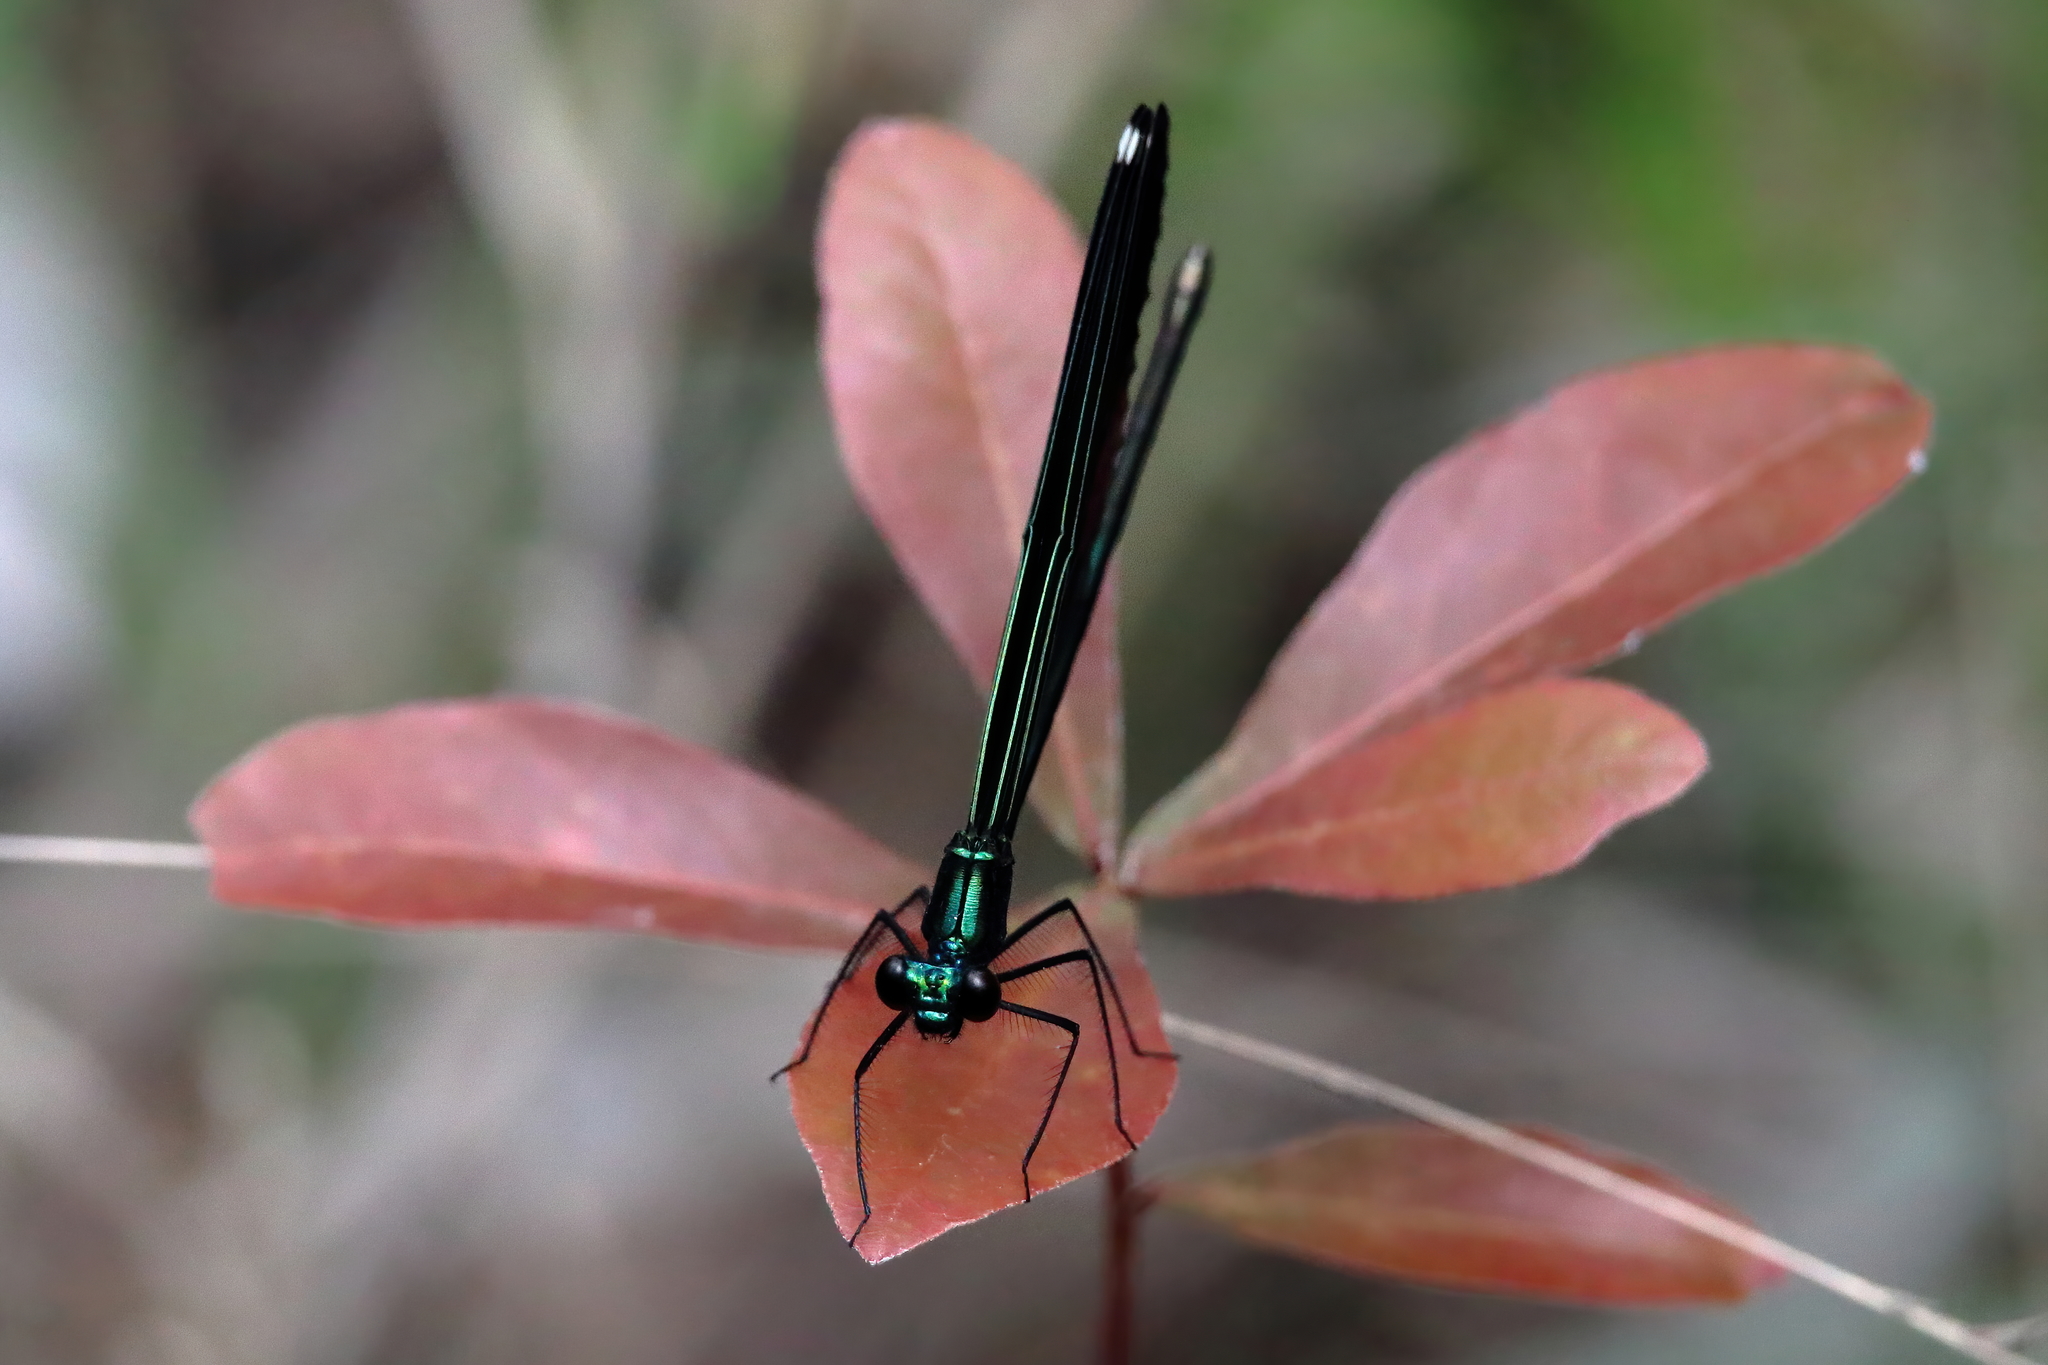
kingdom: Animalia
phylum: Arthropoda
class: Insecta
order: Odonata
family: Calopterygidae
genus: Calopteryx
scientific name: Calopteryx maculata
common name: Ebony jewelwing
